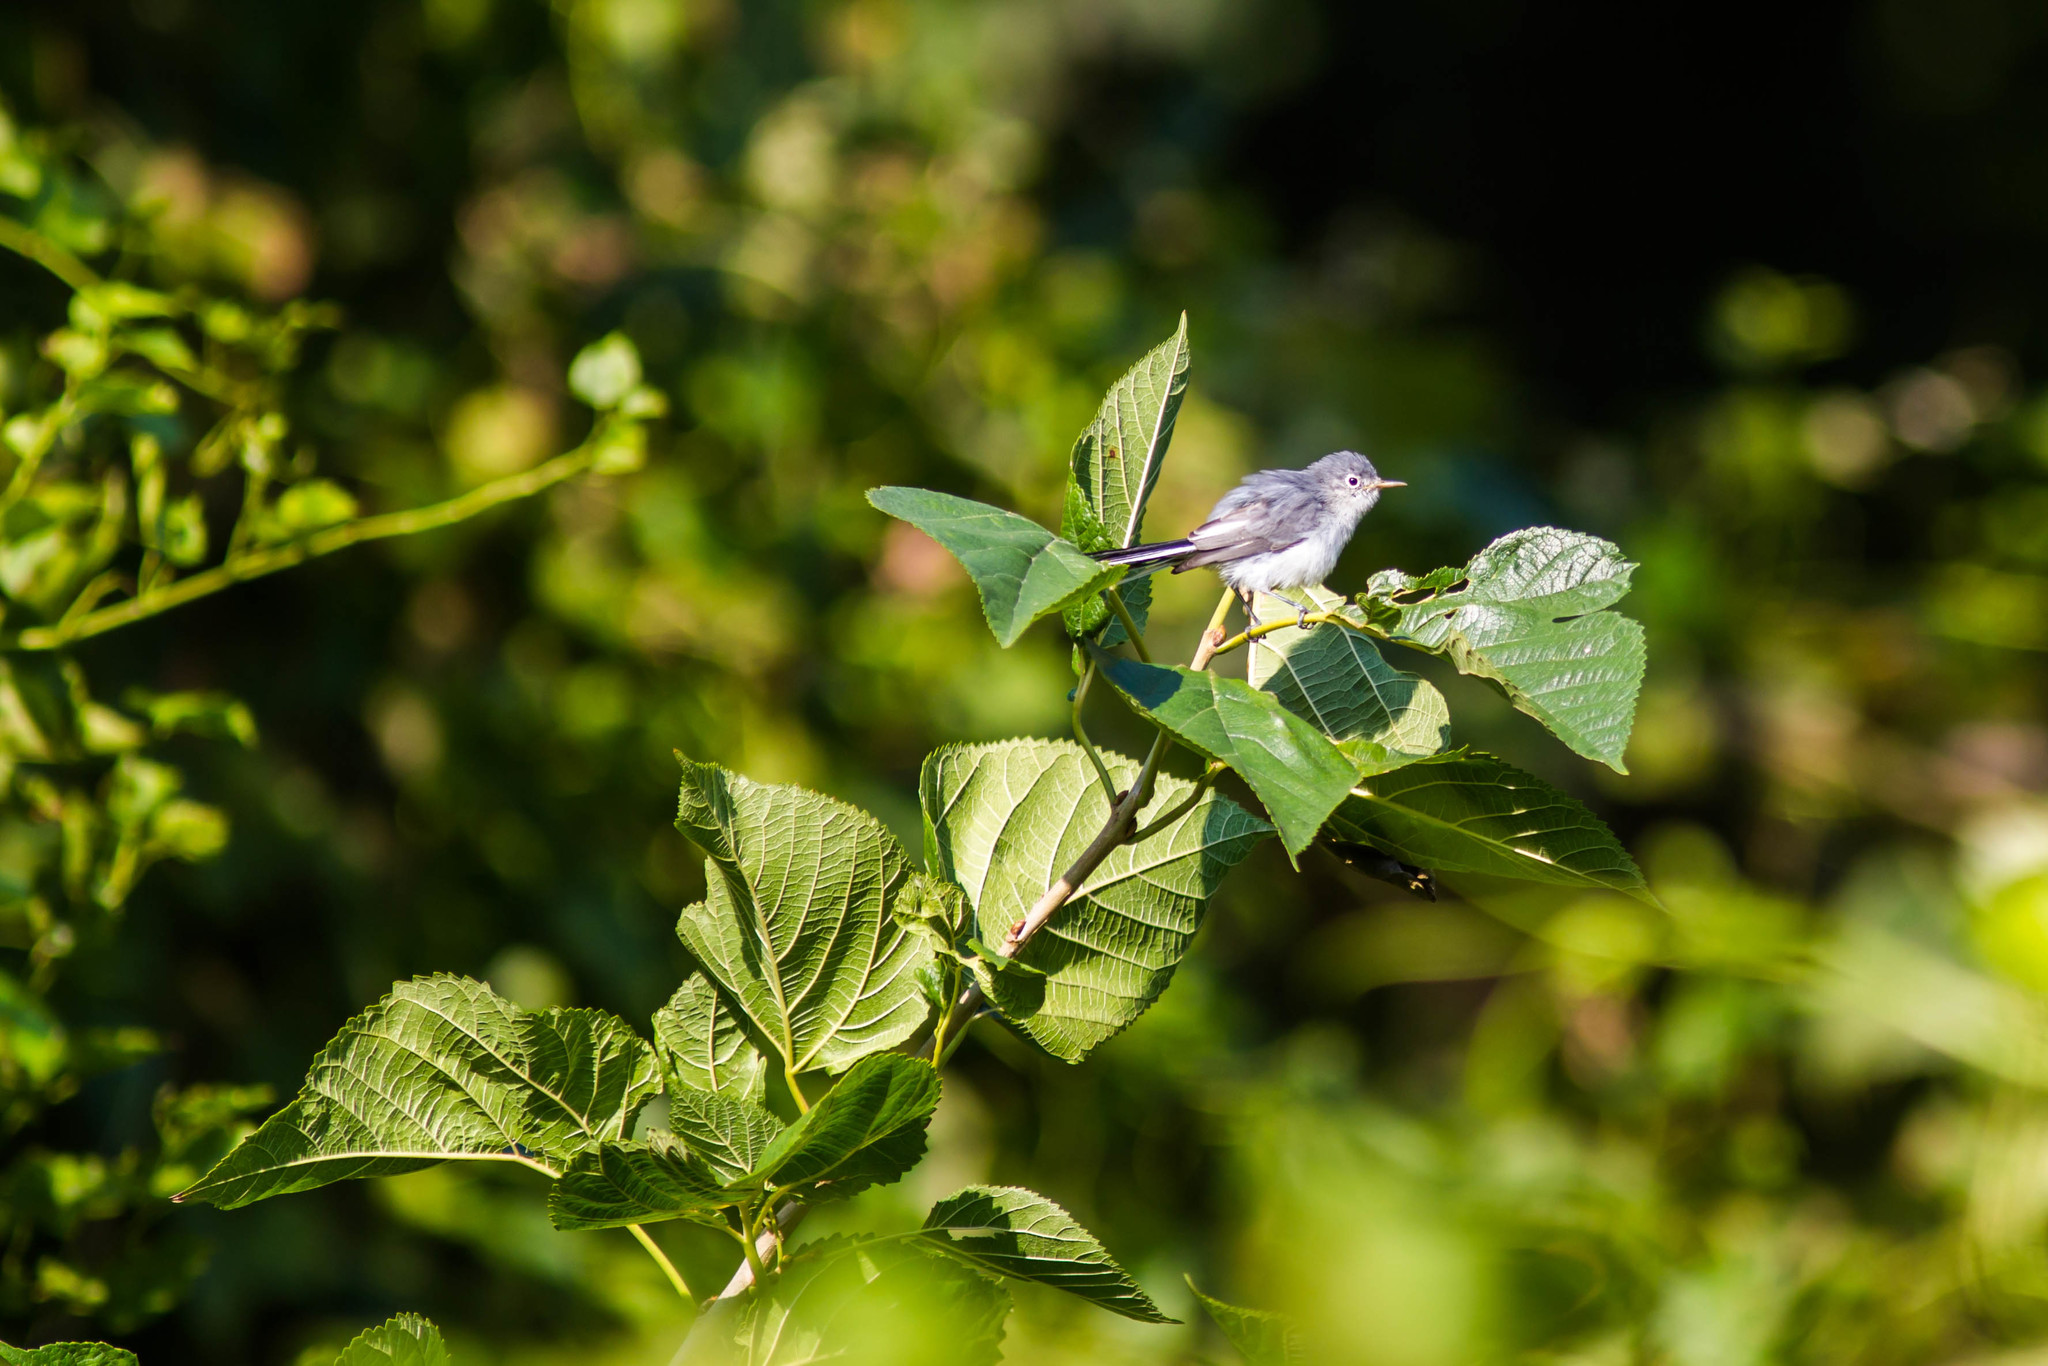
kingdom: Animalia
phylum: Chordata
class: Aves
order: Passeriformes
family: Polioptilidae
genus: Polioptila
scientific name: Polioptila caerulea
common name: Blue-gray gnatcatcher
